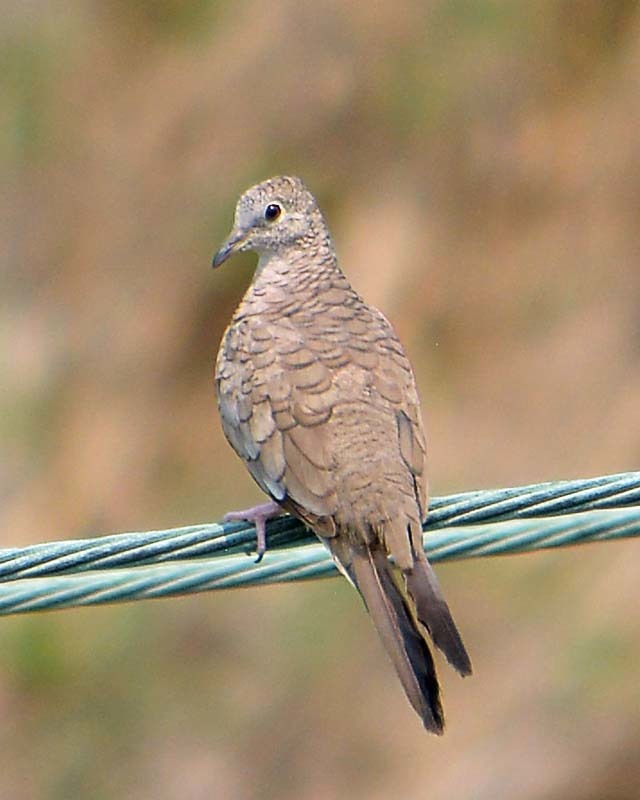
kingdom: Animalia
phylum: Chordata
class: Aves
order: Columbiformes
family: Columbidae
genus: Columbina
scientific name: Columbina inca
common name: Inca dove
